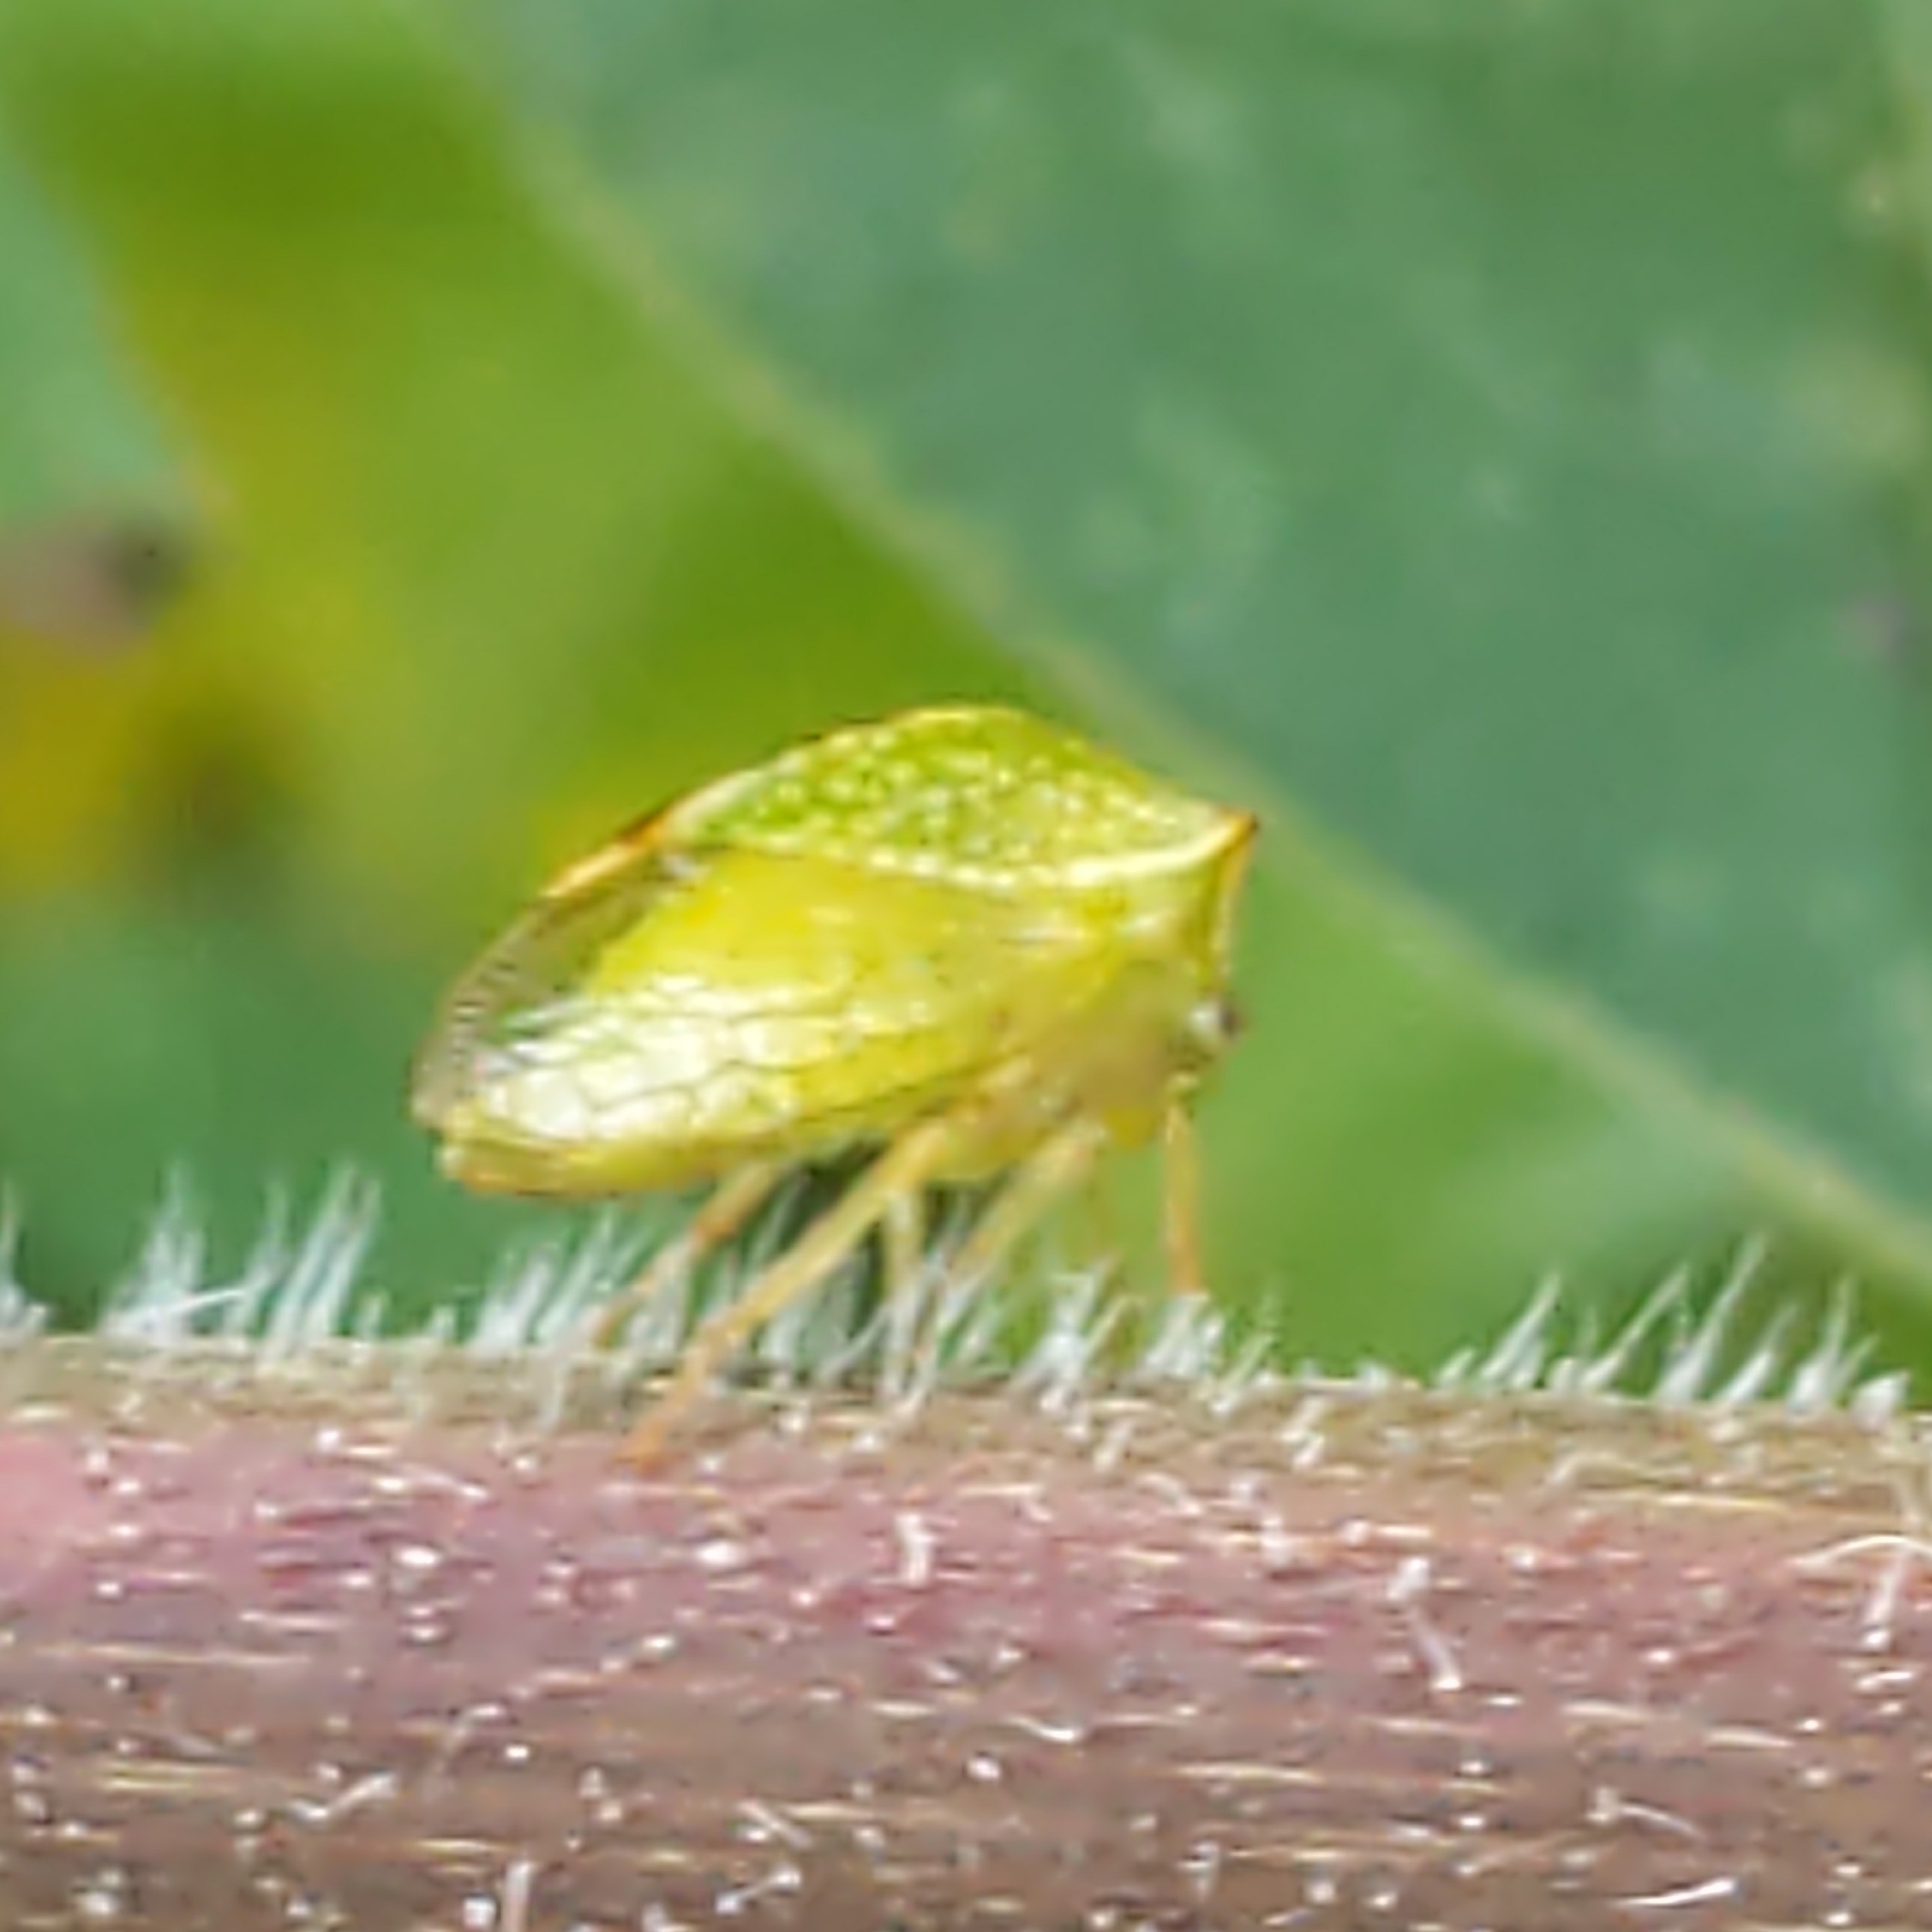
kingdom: Animalia
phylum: Arthropoda
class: Insecta
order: Hemiptera
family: Membracidae
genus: Hadrophallus
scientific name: Hadrophallus
